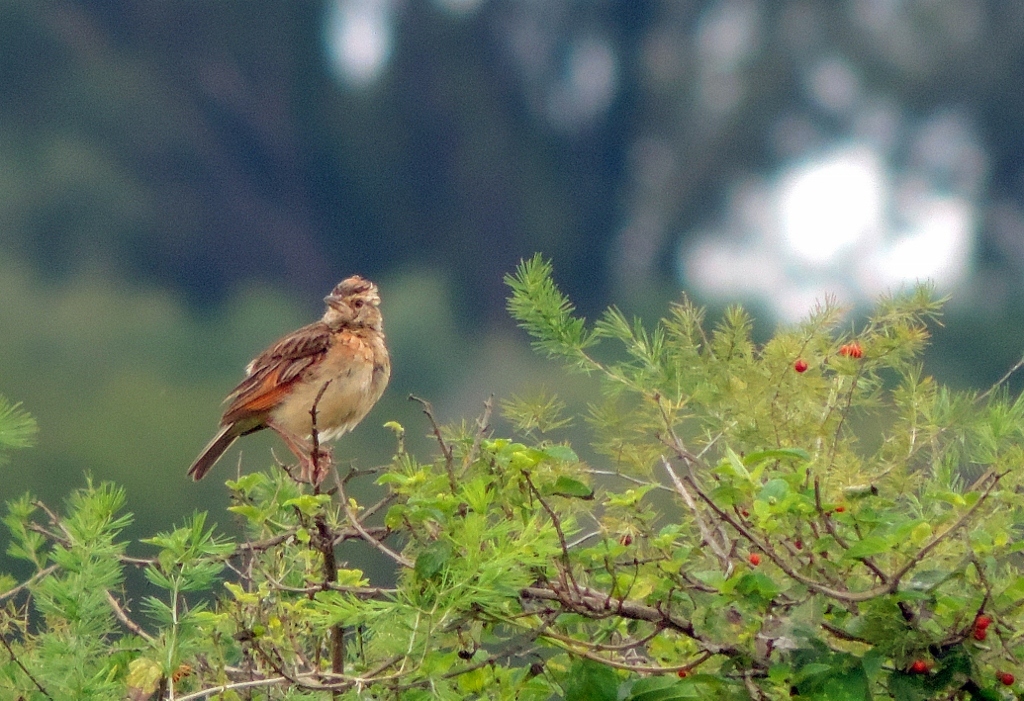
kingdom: Animalia
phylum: Chordata
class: Aves
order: Passeriformes
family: Alaudidae
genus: Mirafra
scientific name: Mirafra africana
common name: Rufous-naped lark
